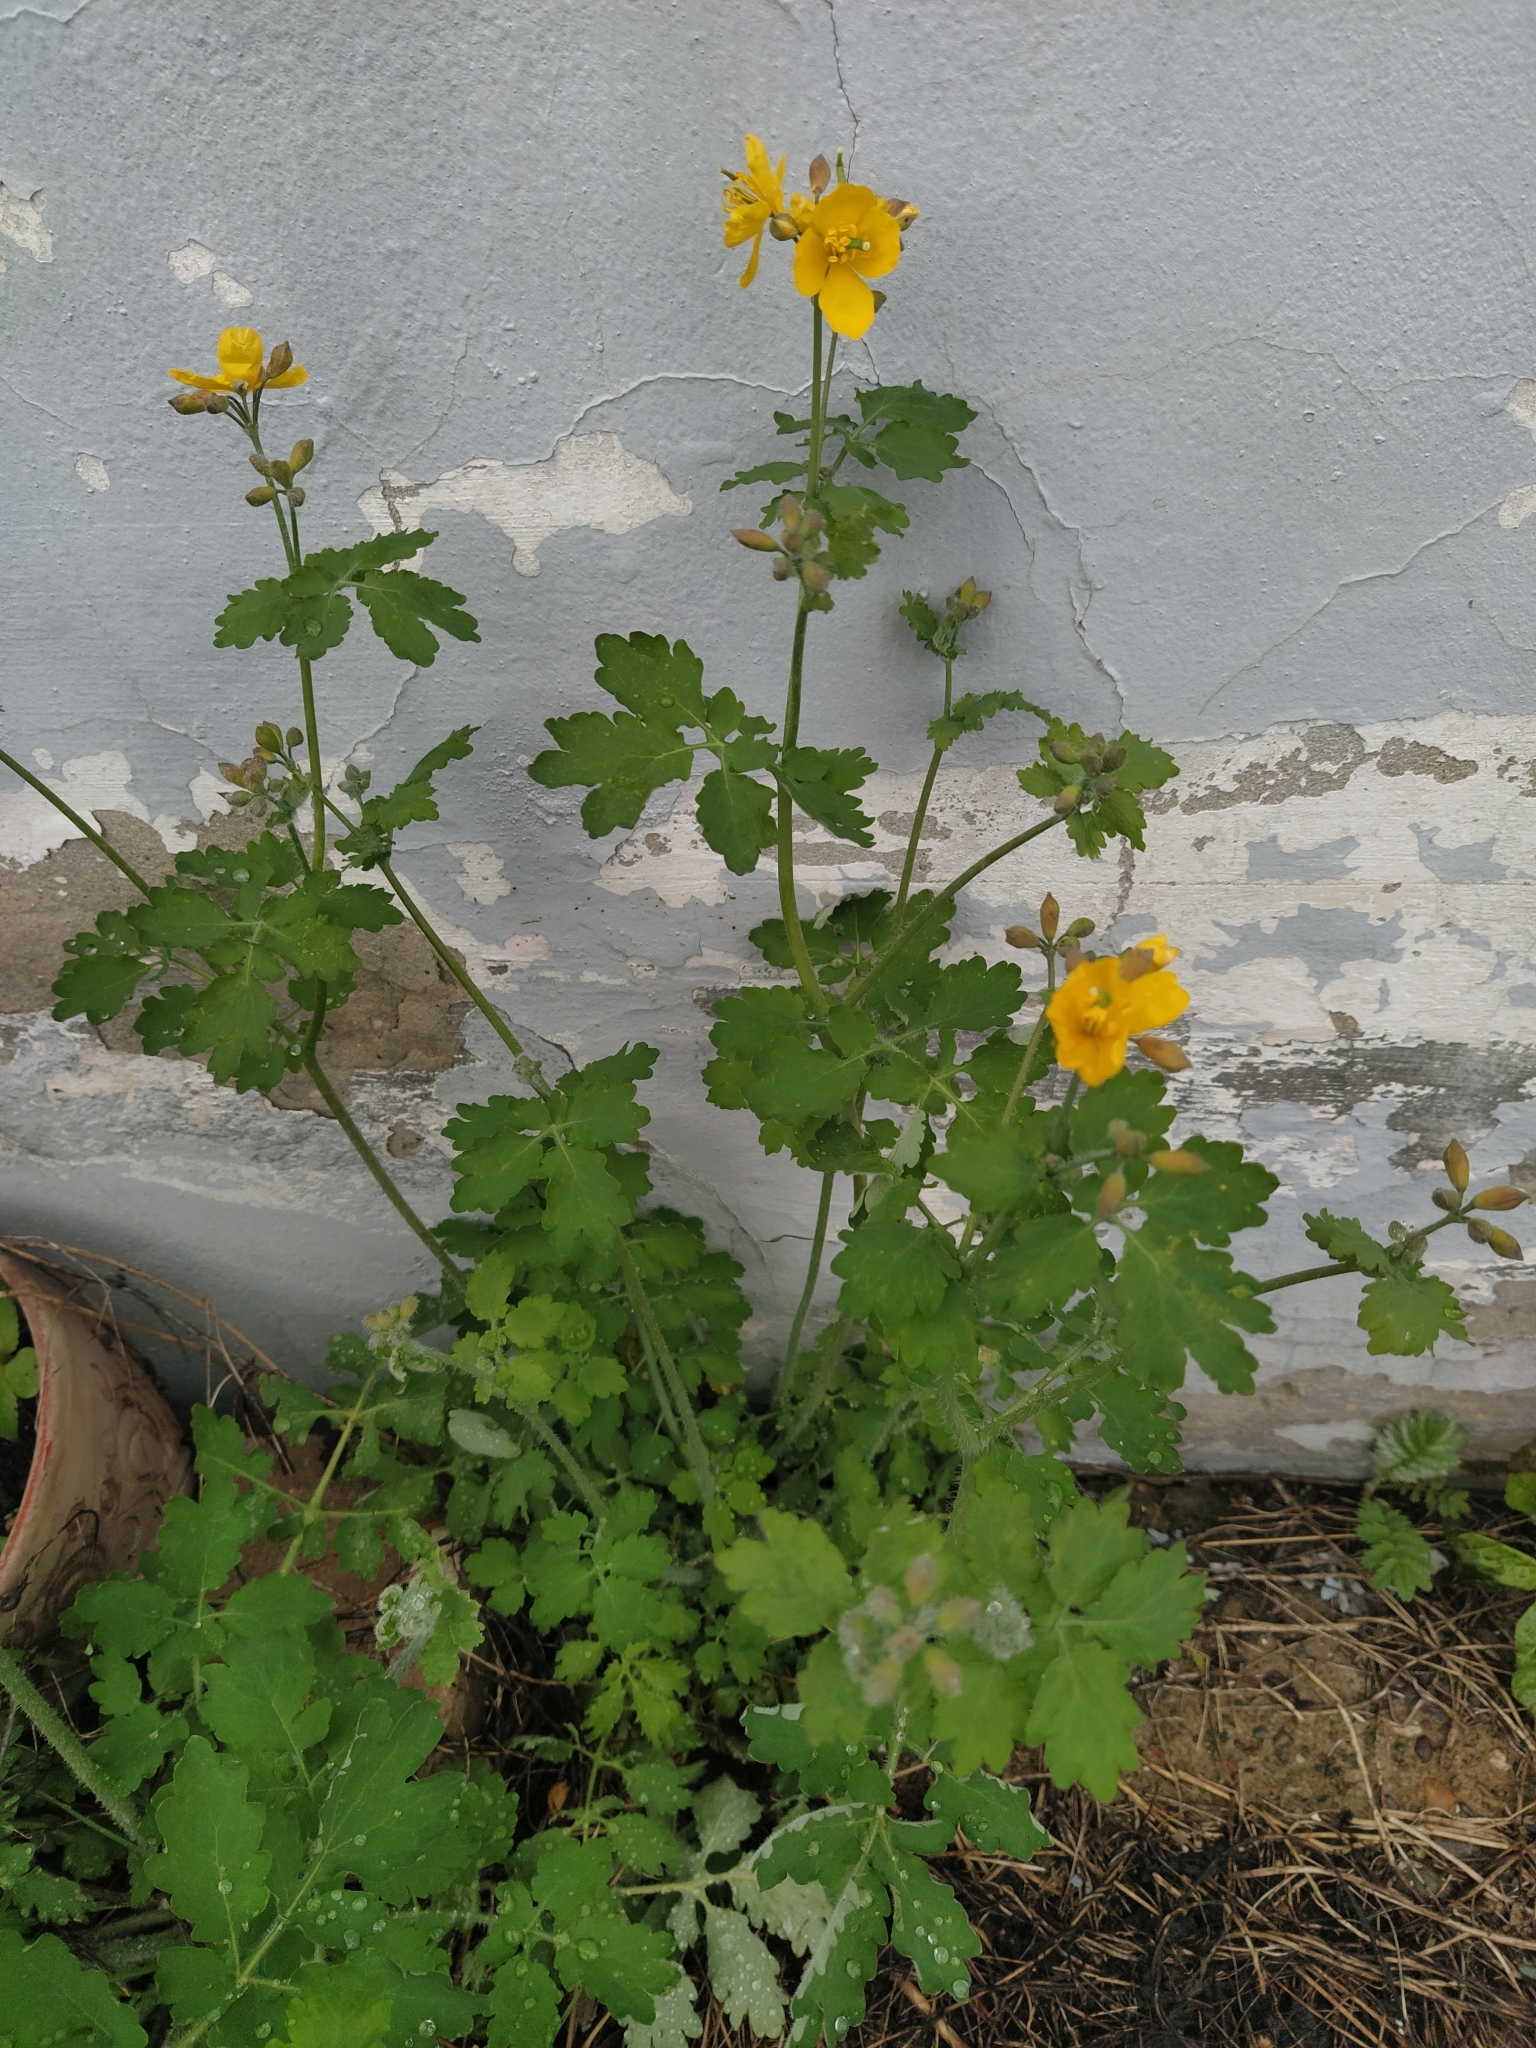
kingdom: Plantae
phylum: Tracheophyta
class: Magnoliopsida
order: Ranunculales
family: Papaveraceae
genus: Chelidonium
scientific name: Chelidonium majus
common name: Greater celandine
